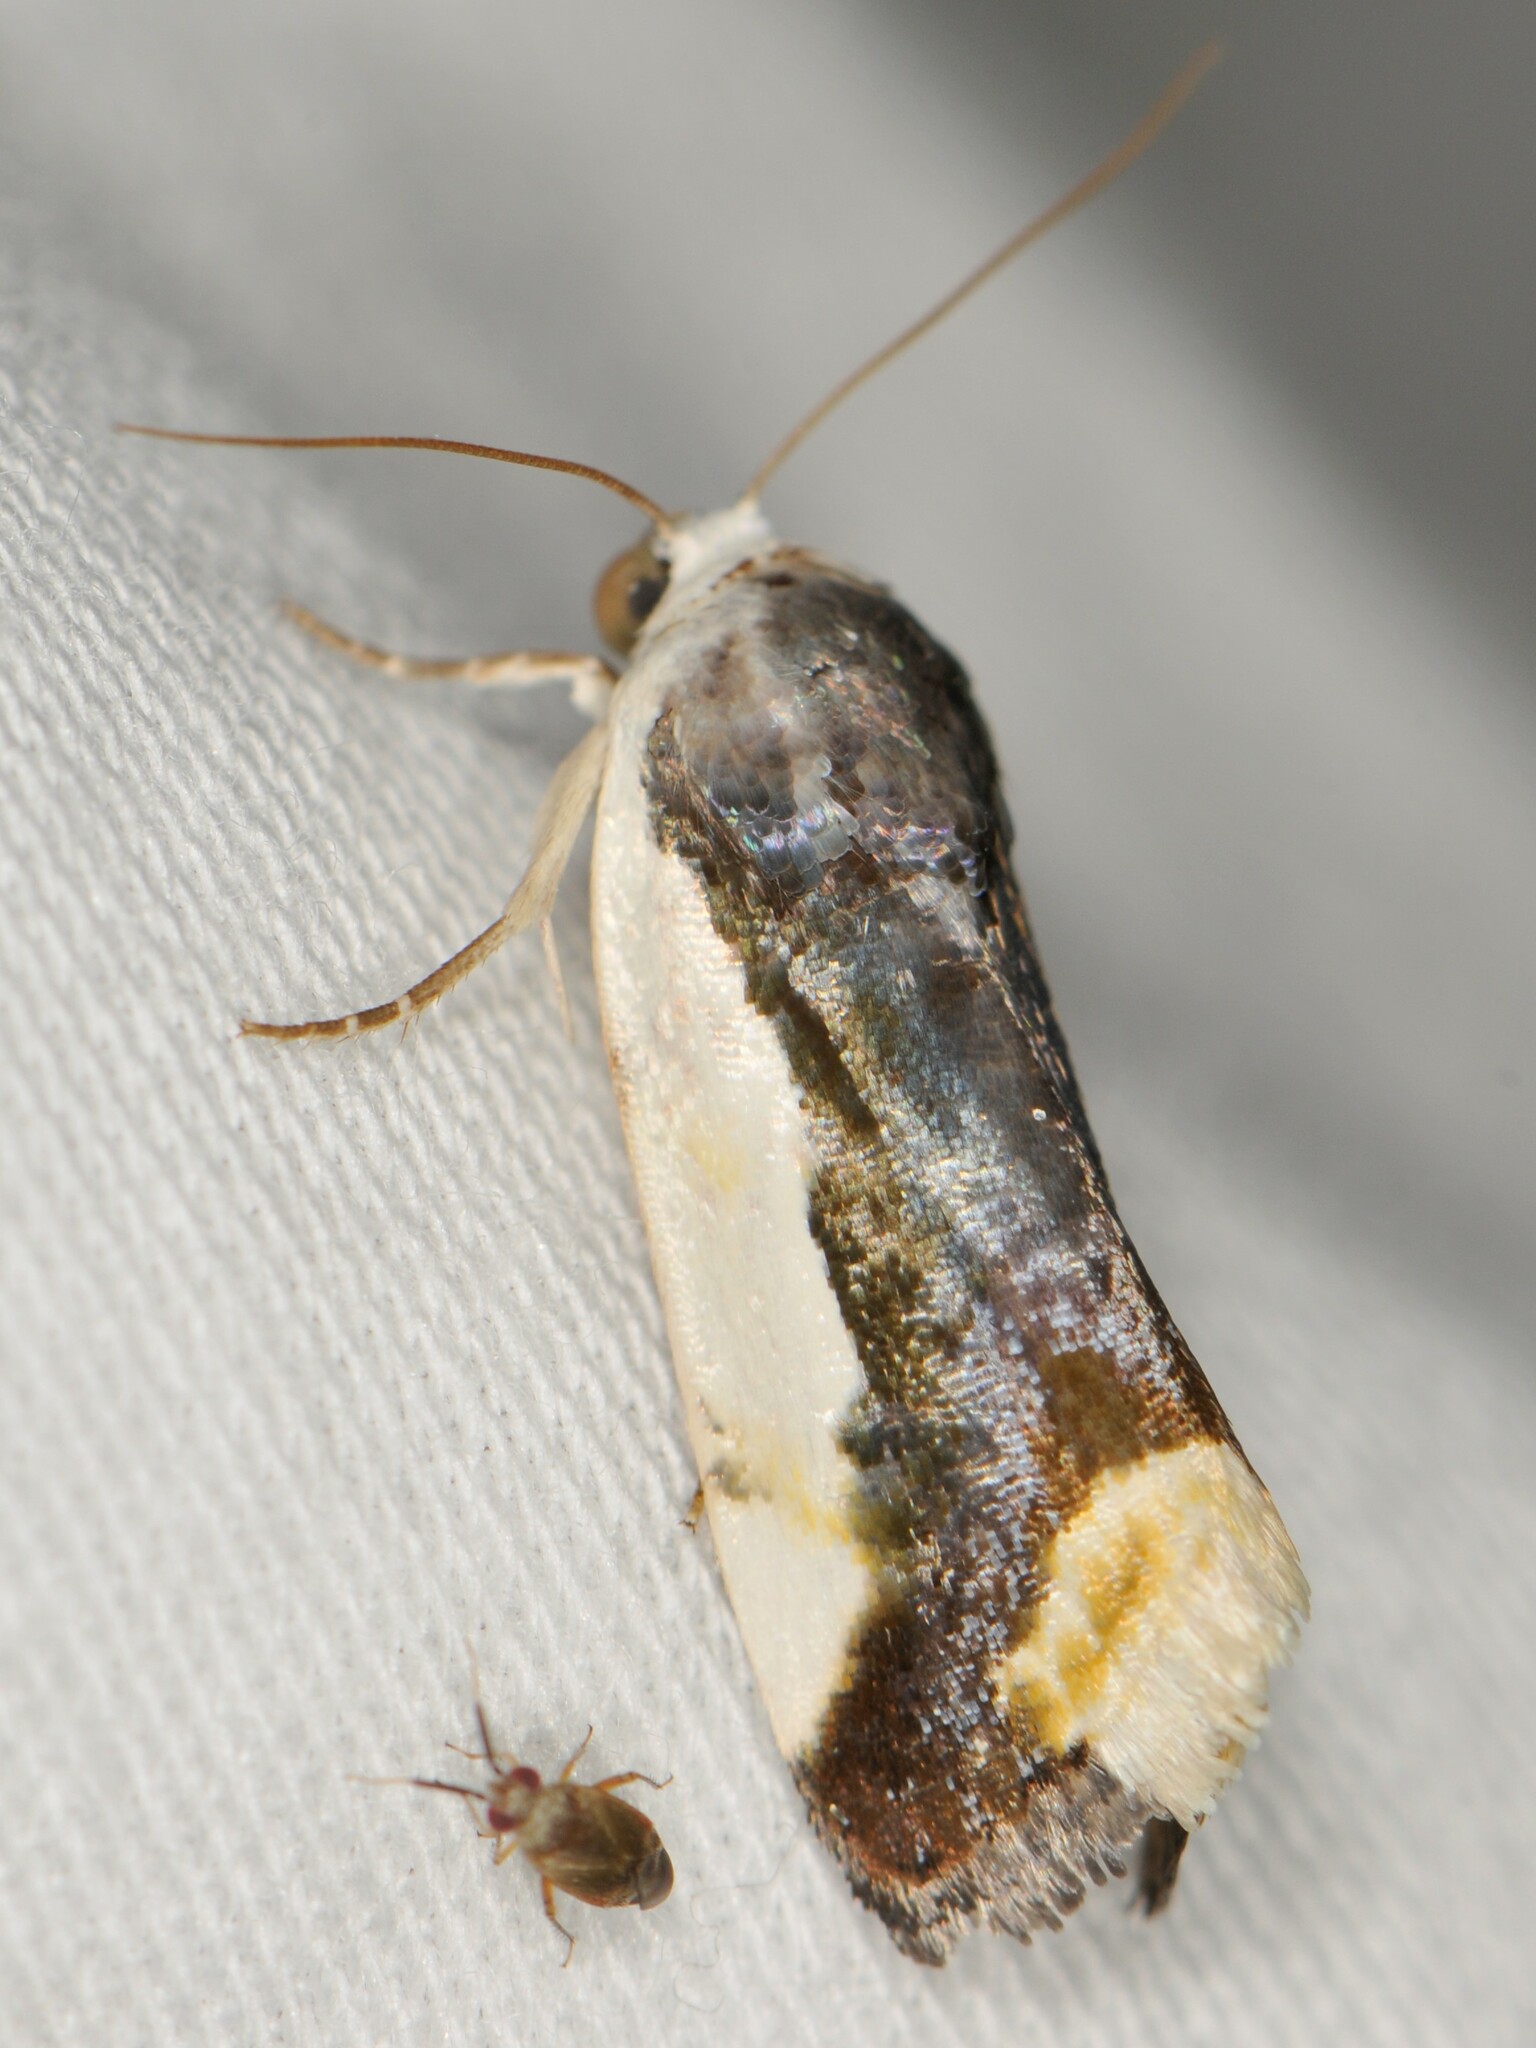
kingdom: Animalia
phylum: Arthropoda
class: Insecta
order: Lepidoptera
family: Noctuidae
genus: Acontia
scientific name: Acontia Tarache expolita
